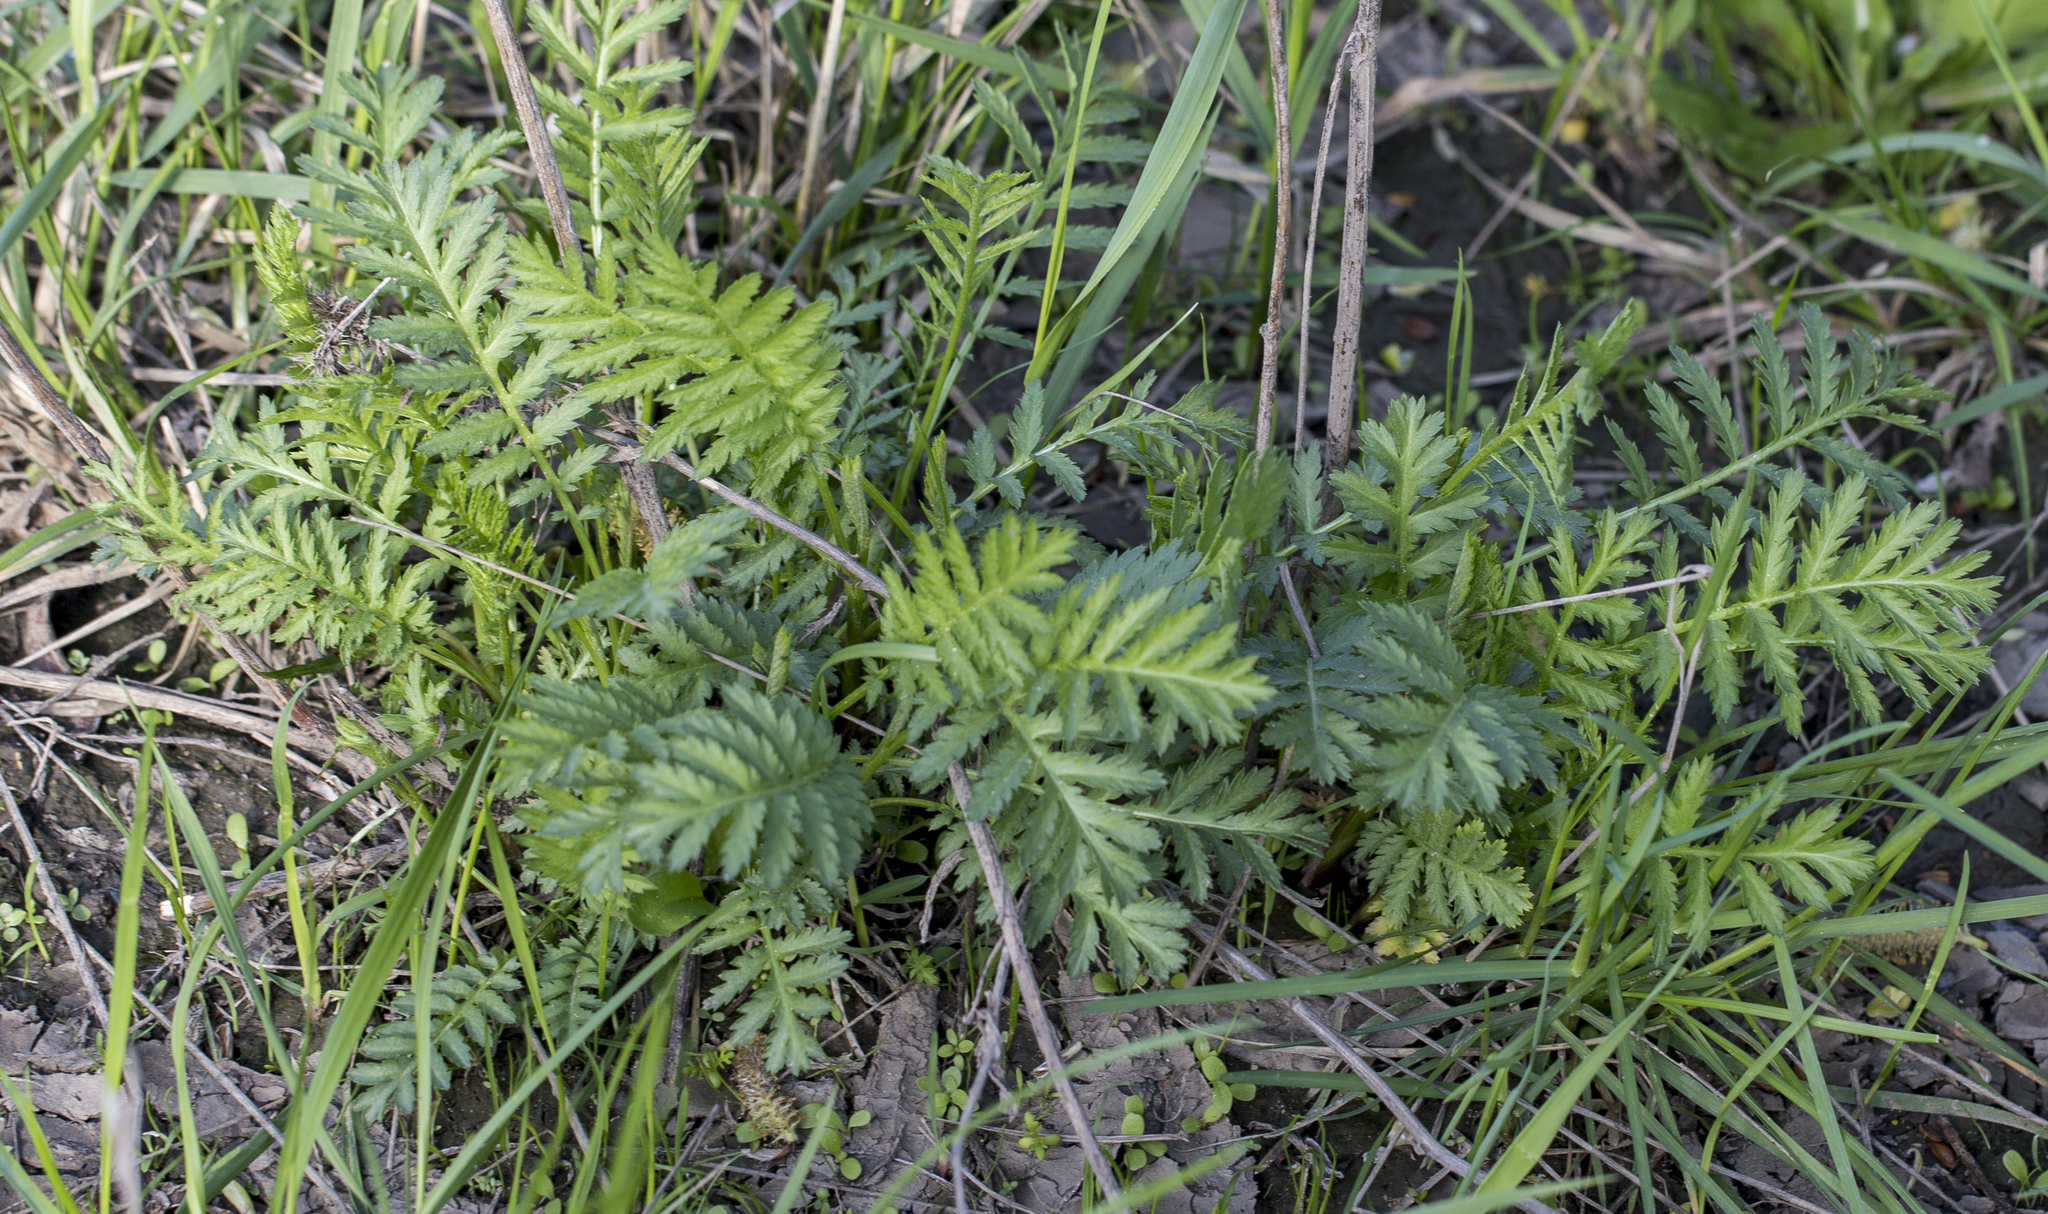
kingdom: Plantae
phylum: Tracheophyta
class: Magnoliopsida
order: Asterales
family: Asteraceae
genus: Tanacetum
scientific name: Tanacetum vulgare
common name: Common tansy
